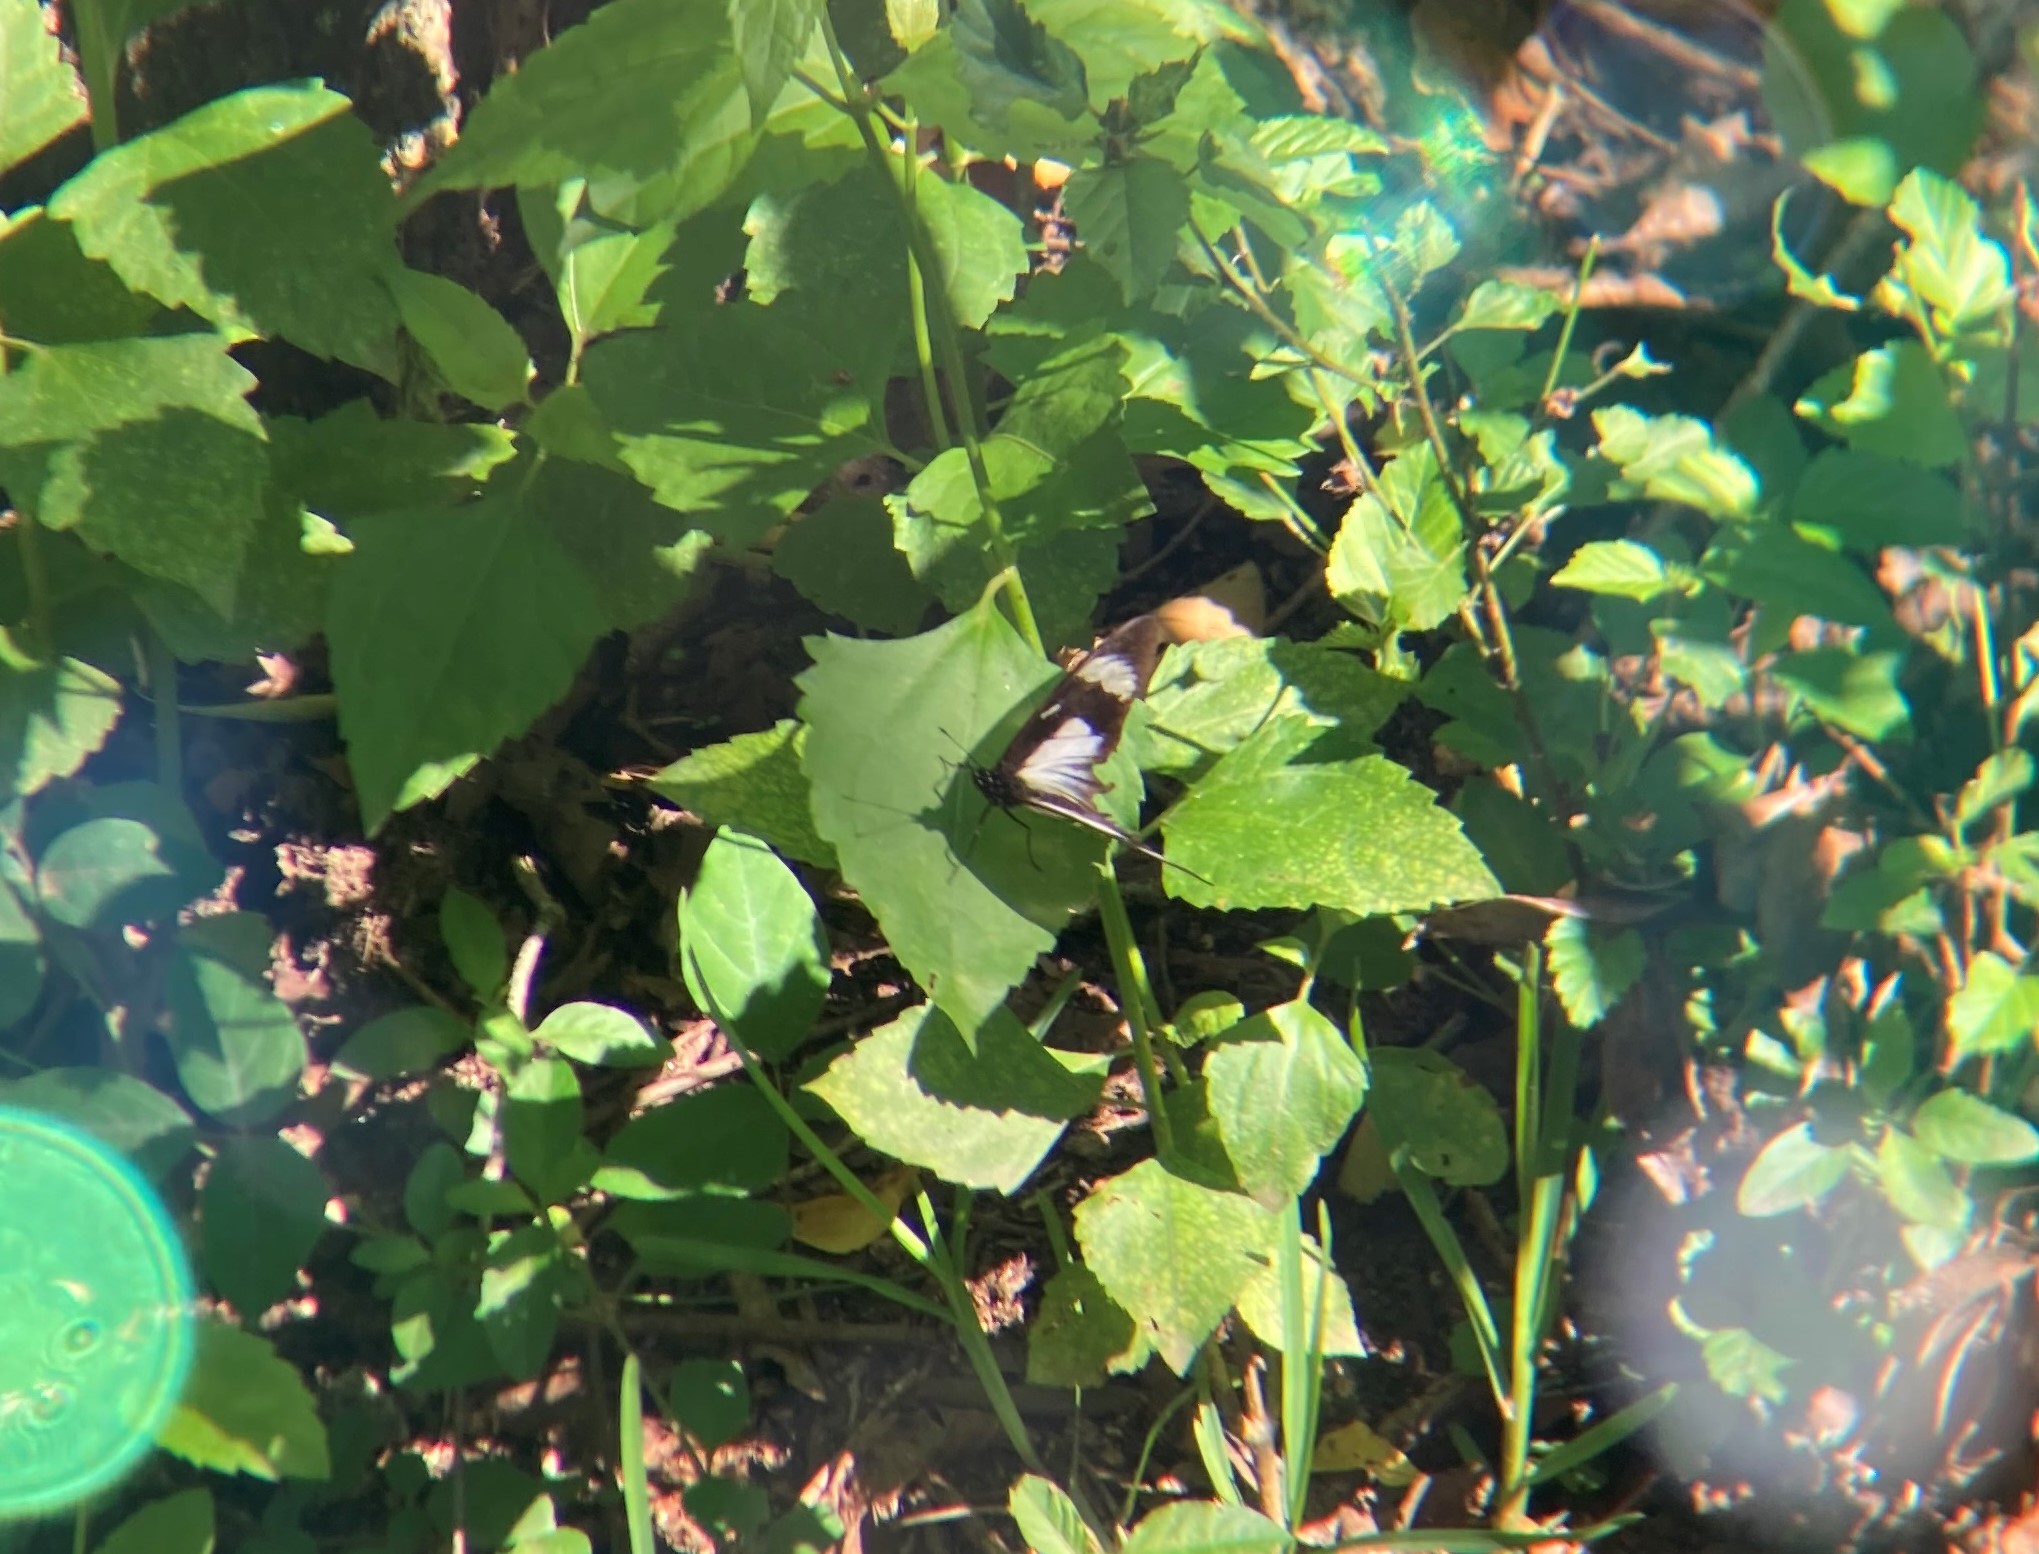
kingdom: Animalia
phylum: Arthropoda
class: Insecta
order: Lepidoptera
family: Nymphalidae
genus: Hypolimnas
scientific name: Hypolimnas dubius
